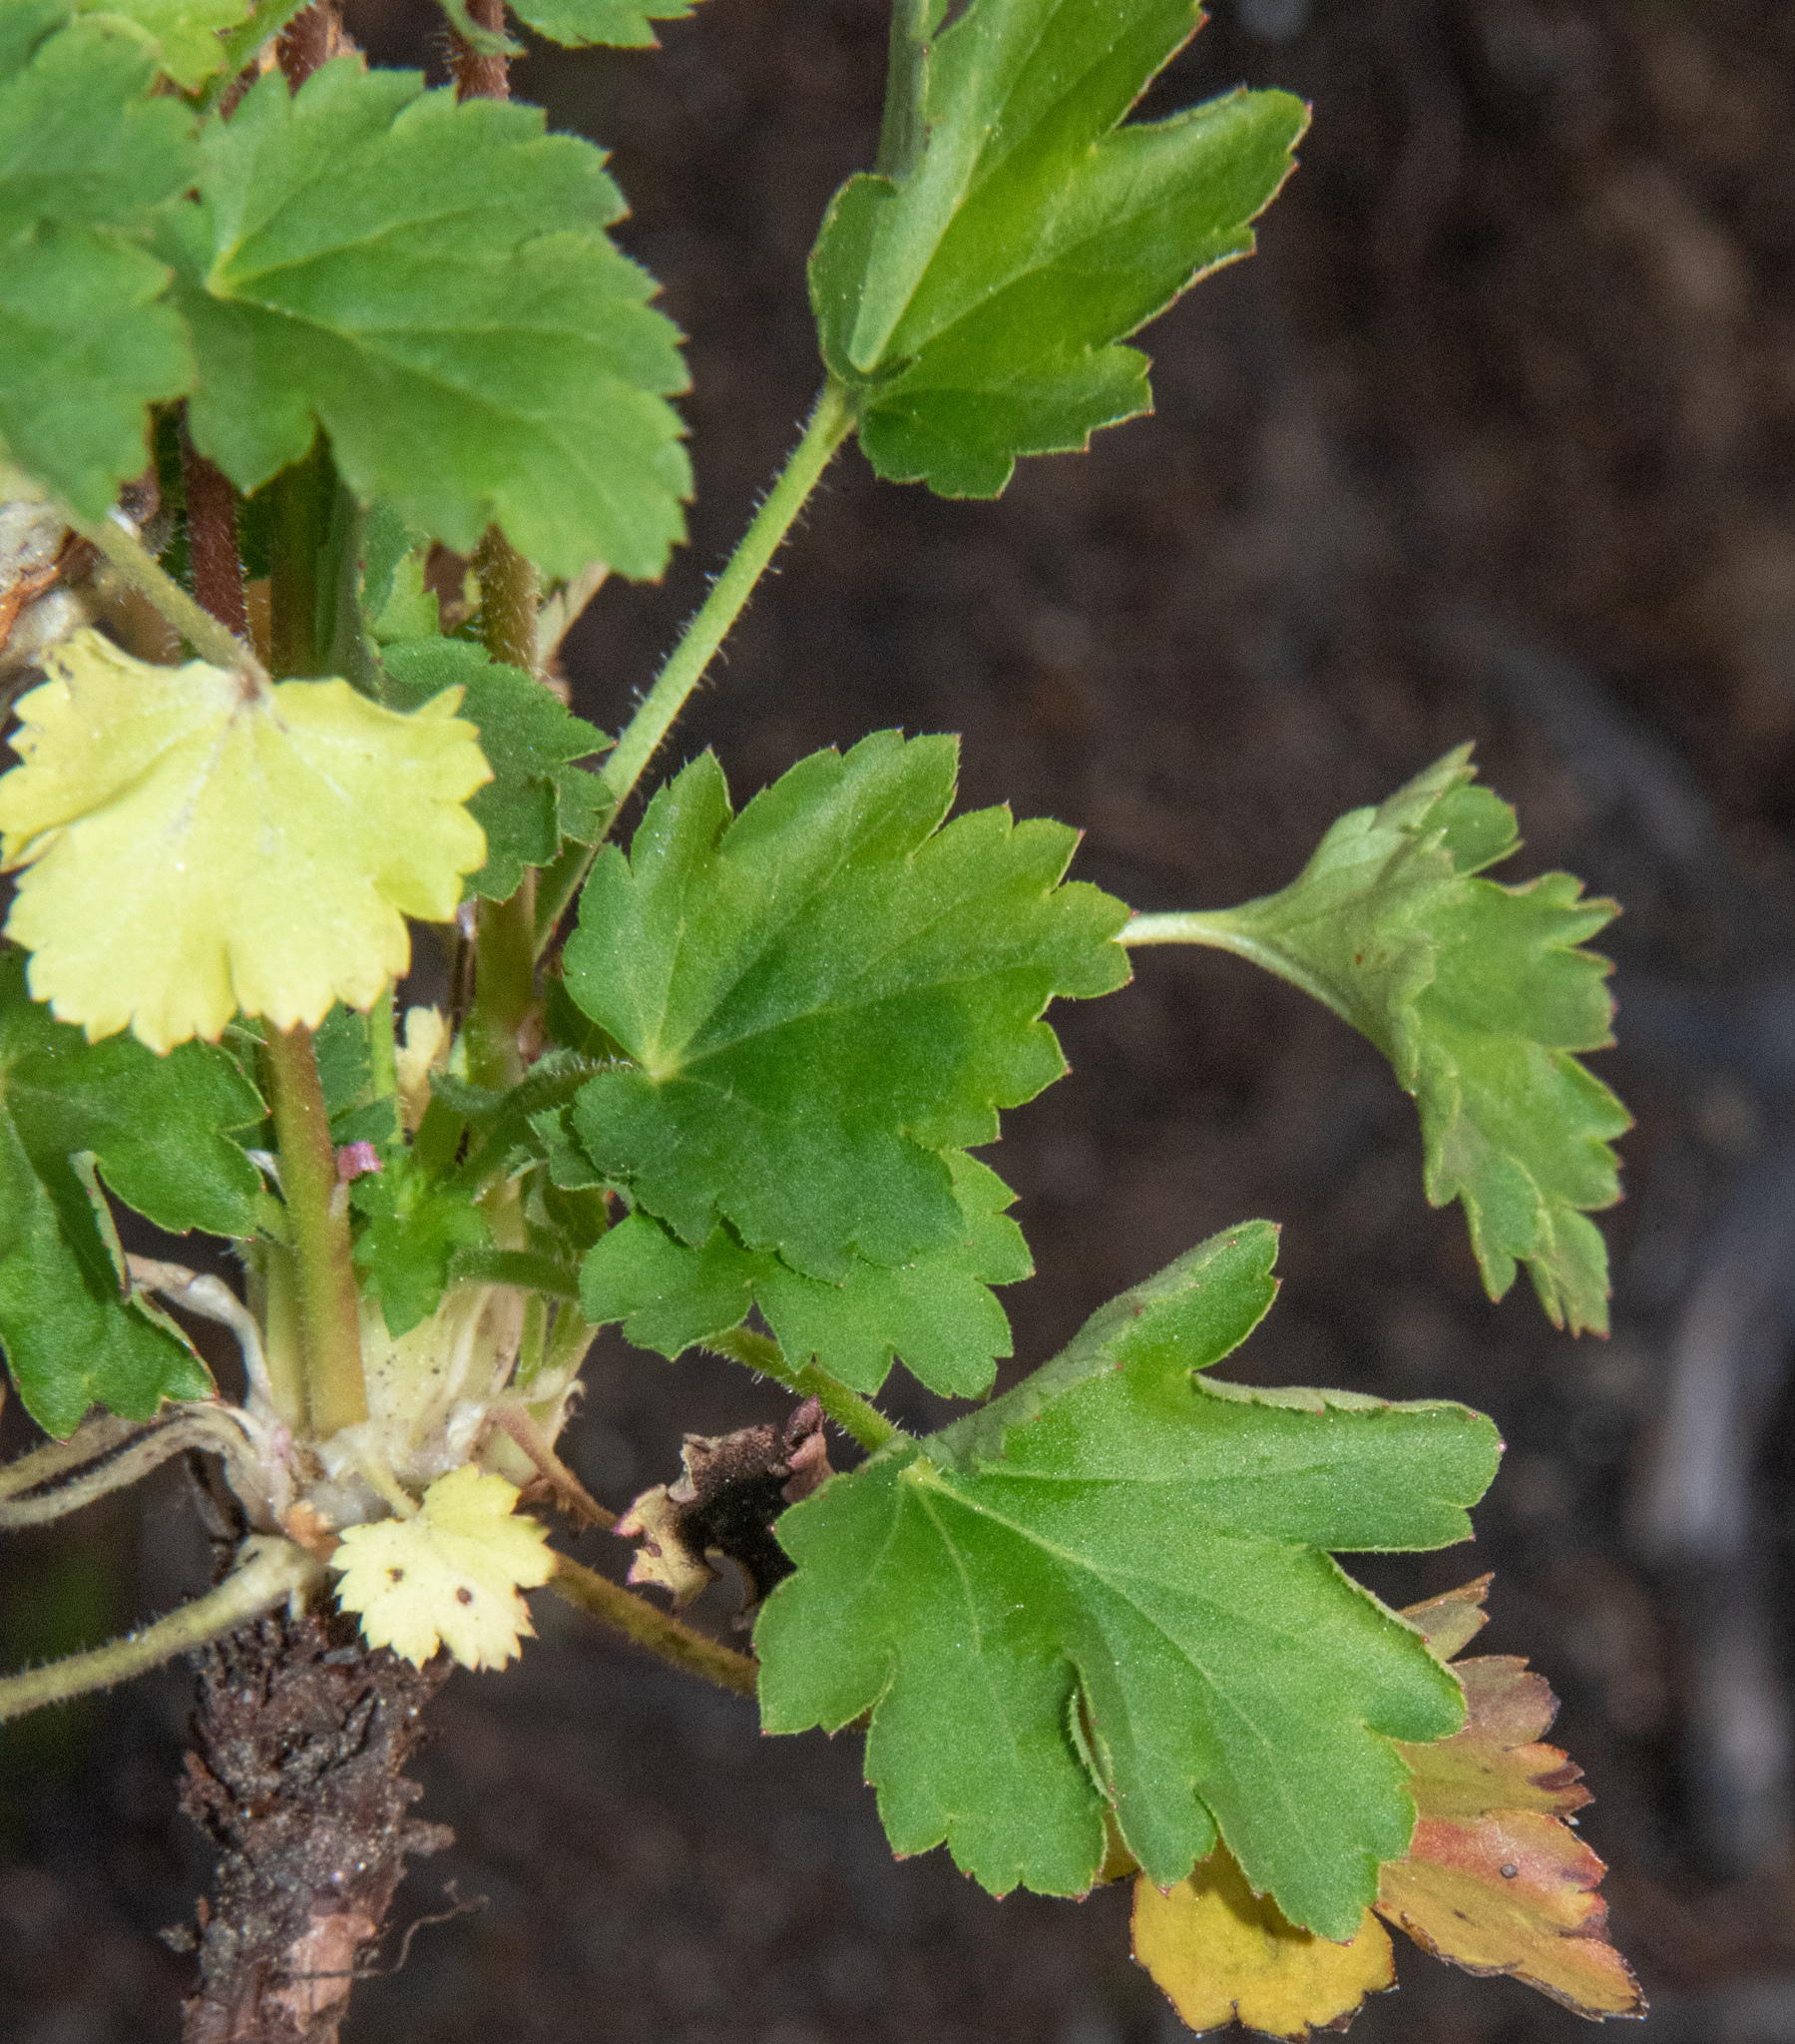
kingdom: Plantae
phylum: Tracheophyta
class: Magnoliopsida
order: Saxifragales
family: Saxifragaceae
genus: Heuchera
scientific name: Heuchera rubescens
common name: Jack-o'the-rocks
